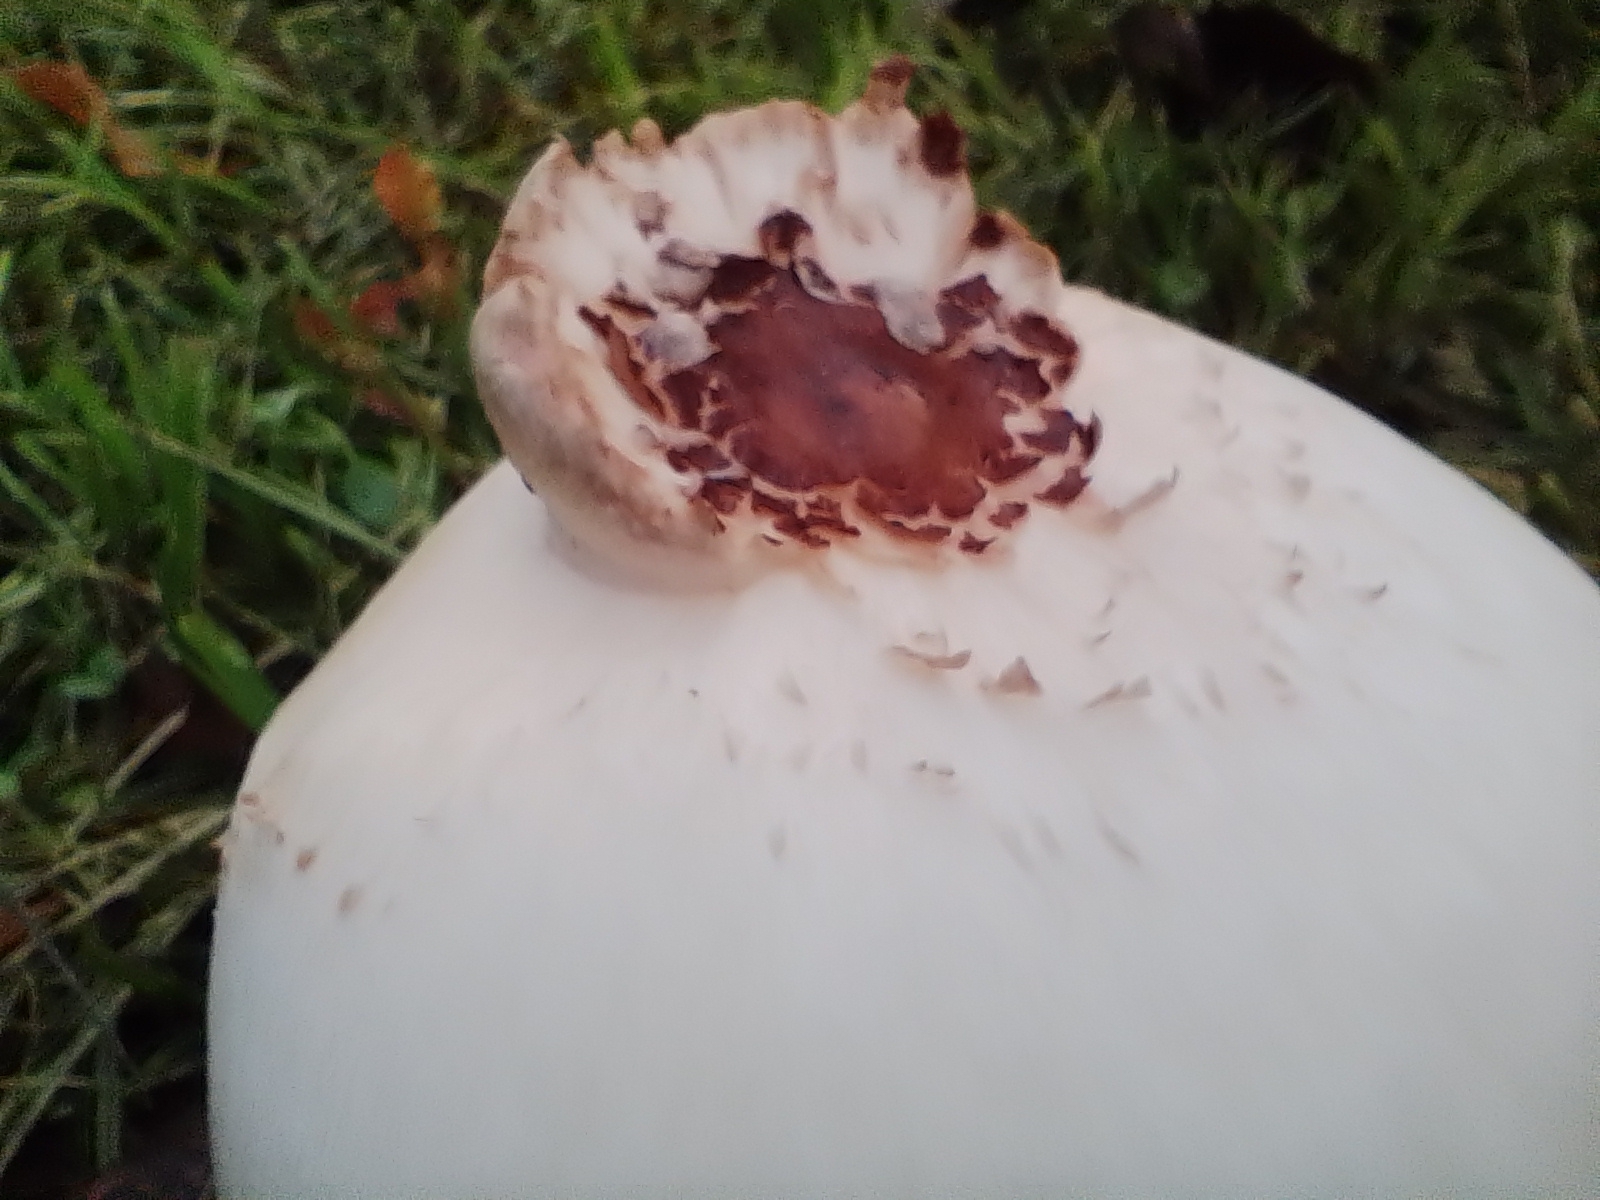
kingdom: Fungi
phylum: Basidiomycota
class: Agaricomycetes
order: Agaricales
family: Agaricaceae
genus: Chlorophyllum
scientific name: Chlorophyllum molybdites
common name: False parasol
